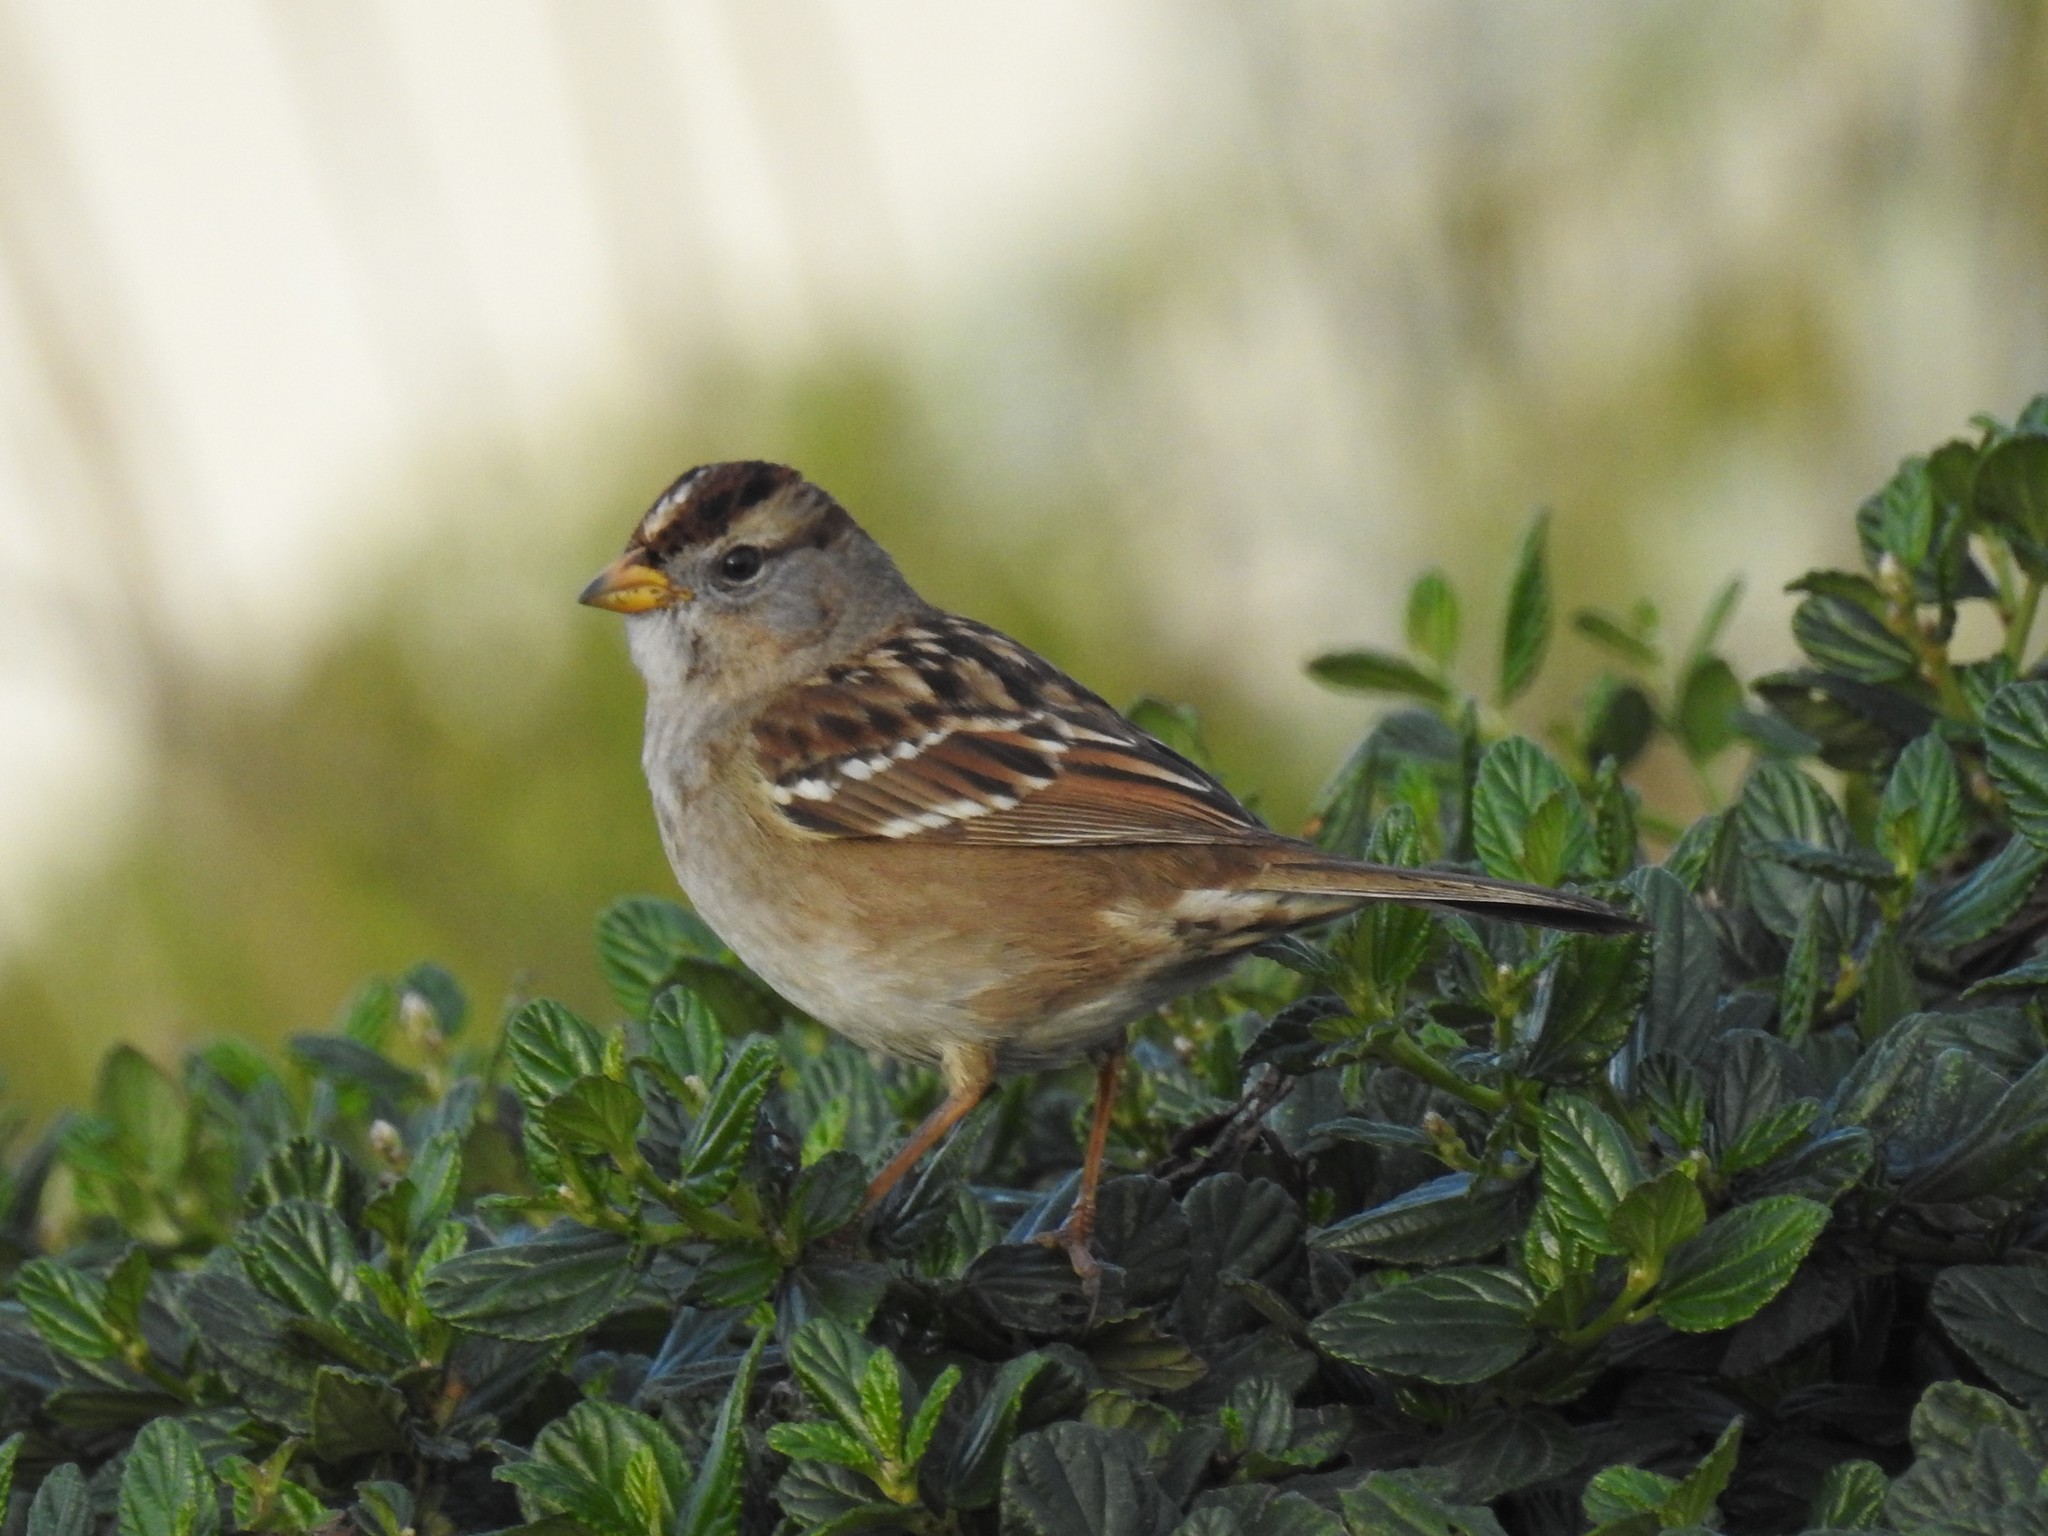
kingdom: Animalia
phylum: Chordata
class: Aves
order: Passeriformes
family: Passerellidae
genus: Zonotrichia
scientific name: Zonotrichia leucophrys
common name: White-crowned sparrow
